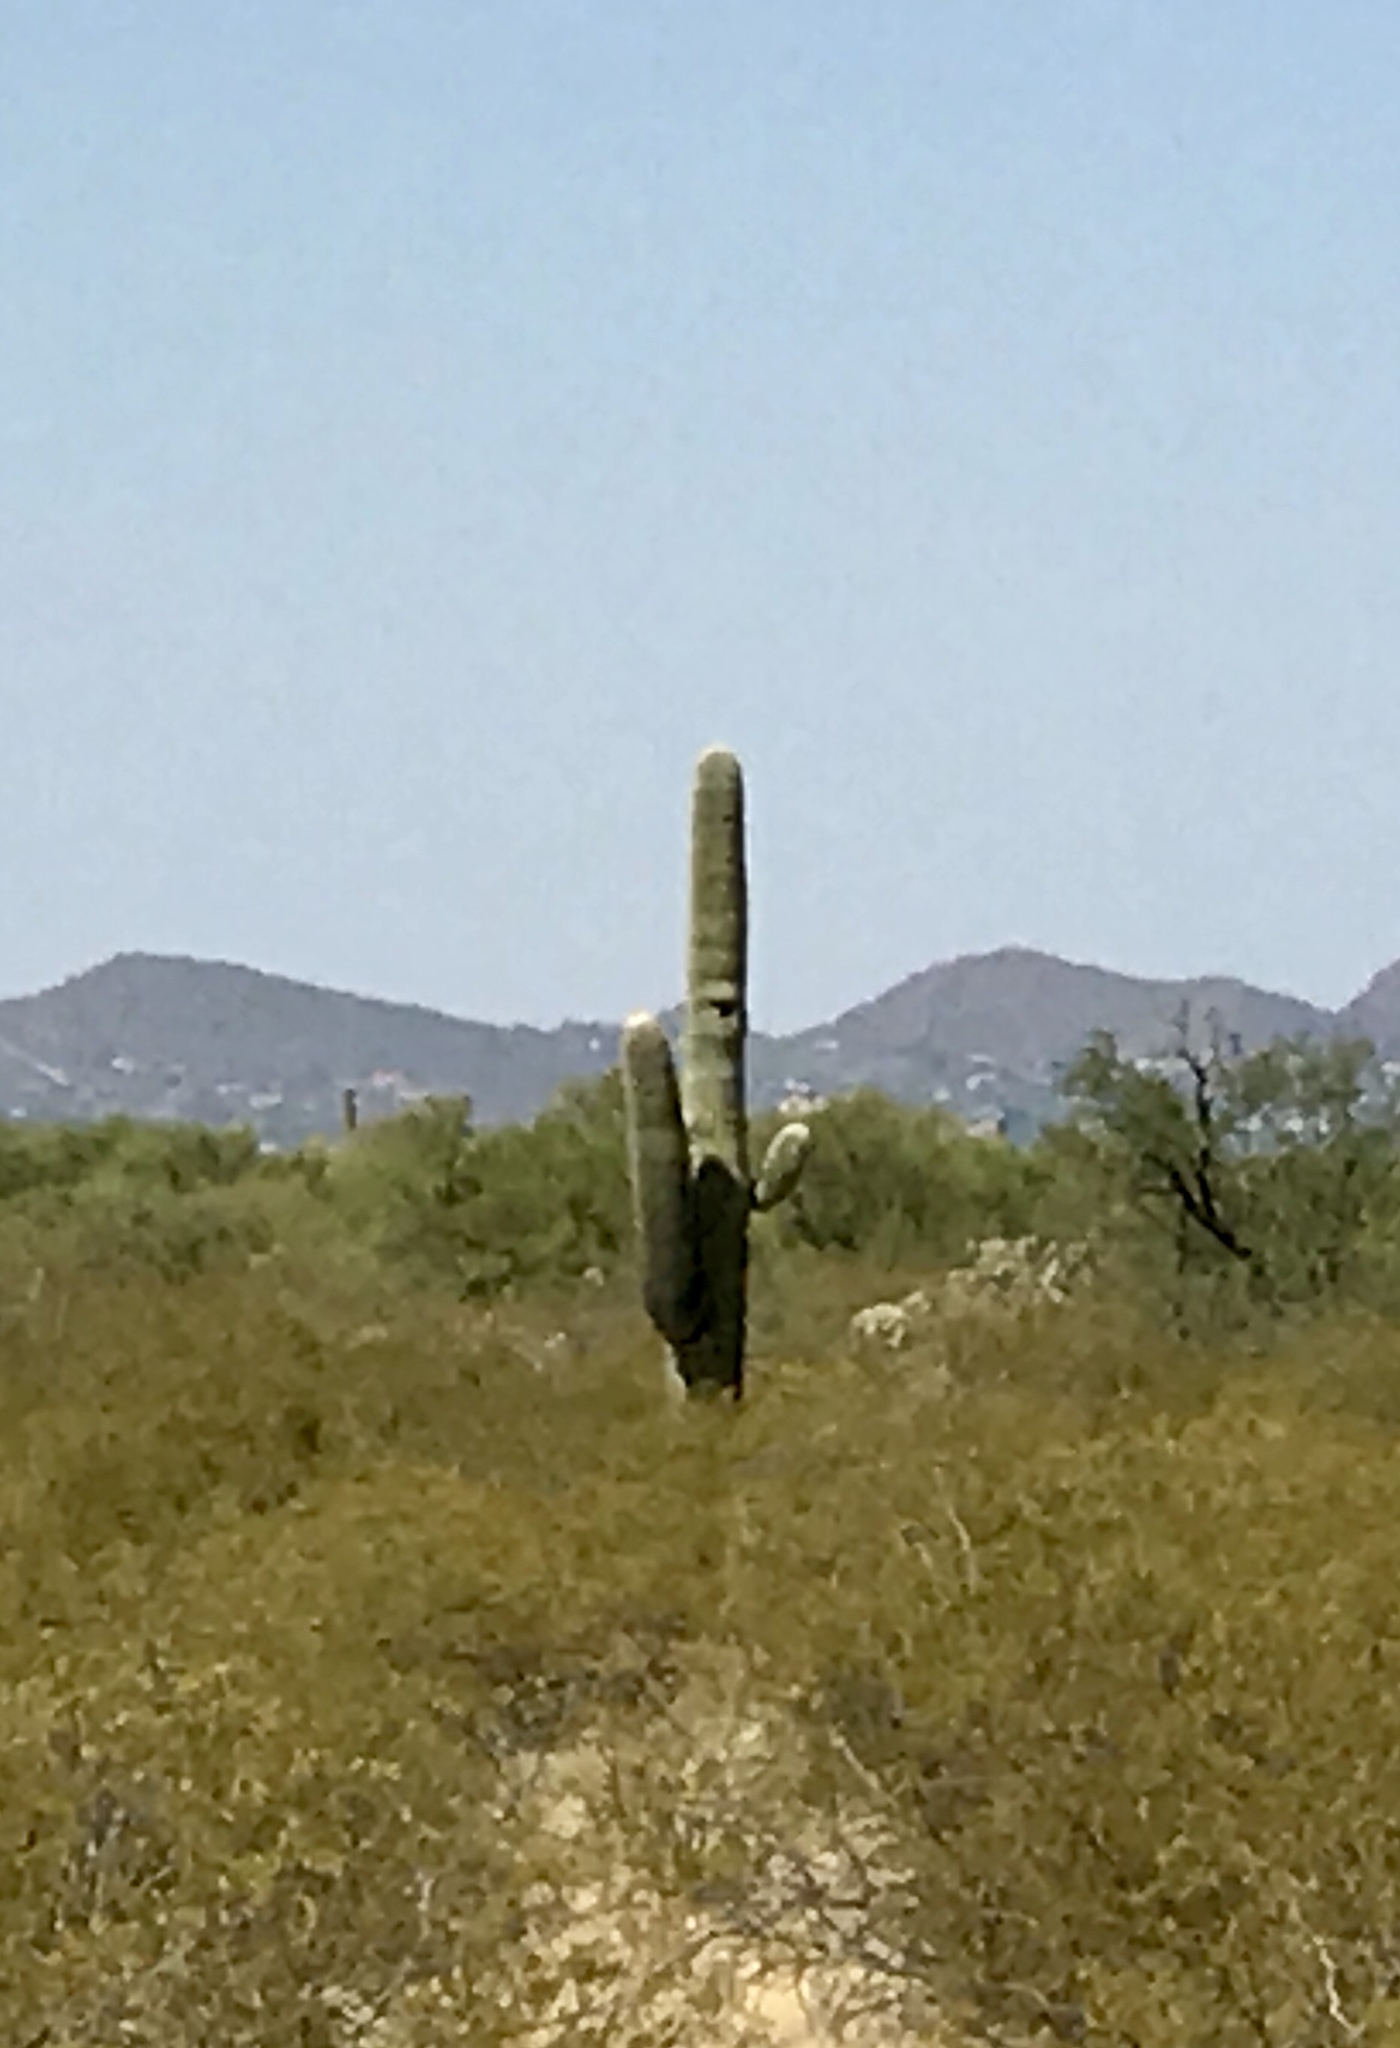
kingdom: Plantae
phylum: Tracheophyta
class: Magnoliopsida
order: Caryophyllales
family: Cactaceae
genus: Carnegiea
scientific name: Carnegiea gigantea
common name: Saguaro
